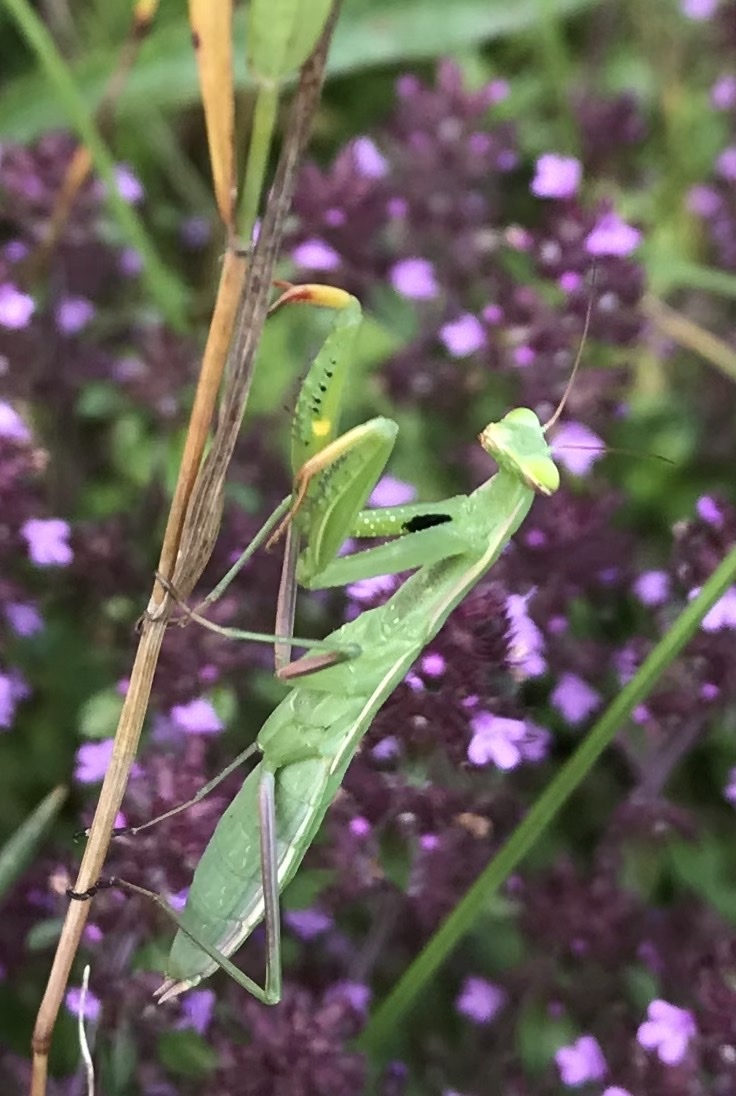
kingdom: Animalia
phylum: Arthropoda
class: Insecta
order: Mantodea
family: Mantidae
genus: Mantis
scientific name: Mantis religiosa
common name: Praying mantis
